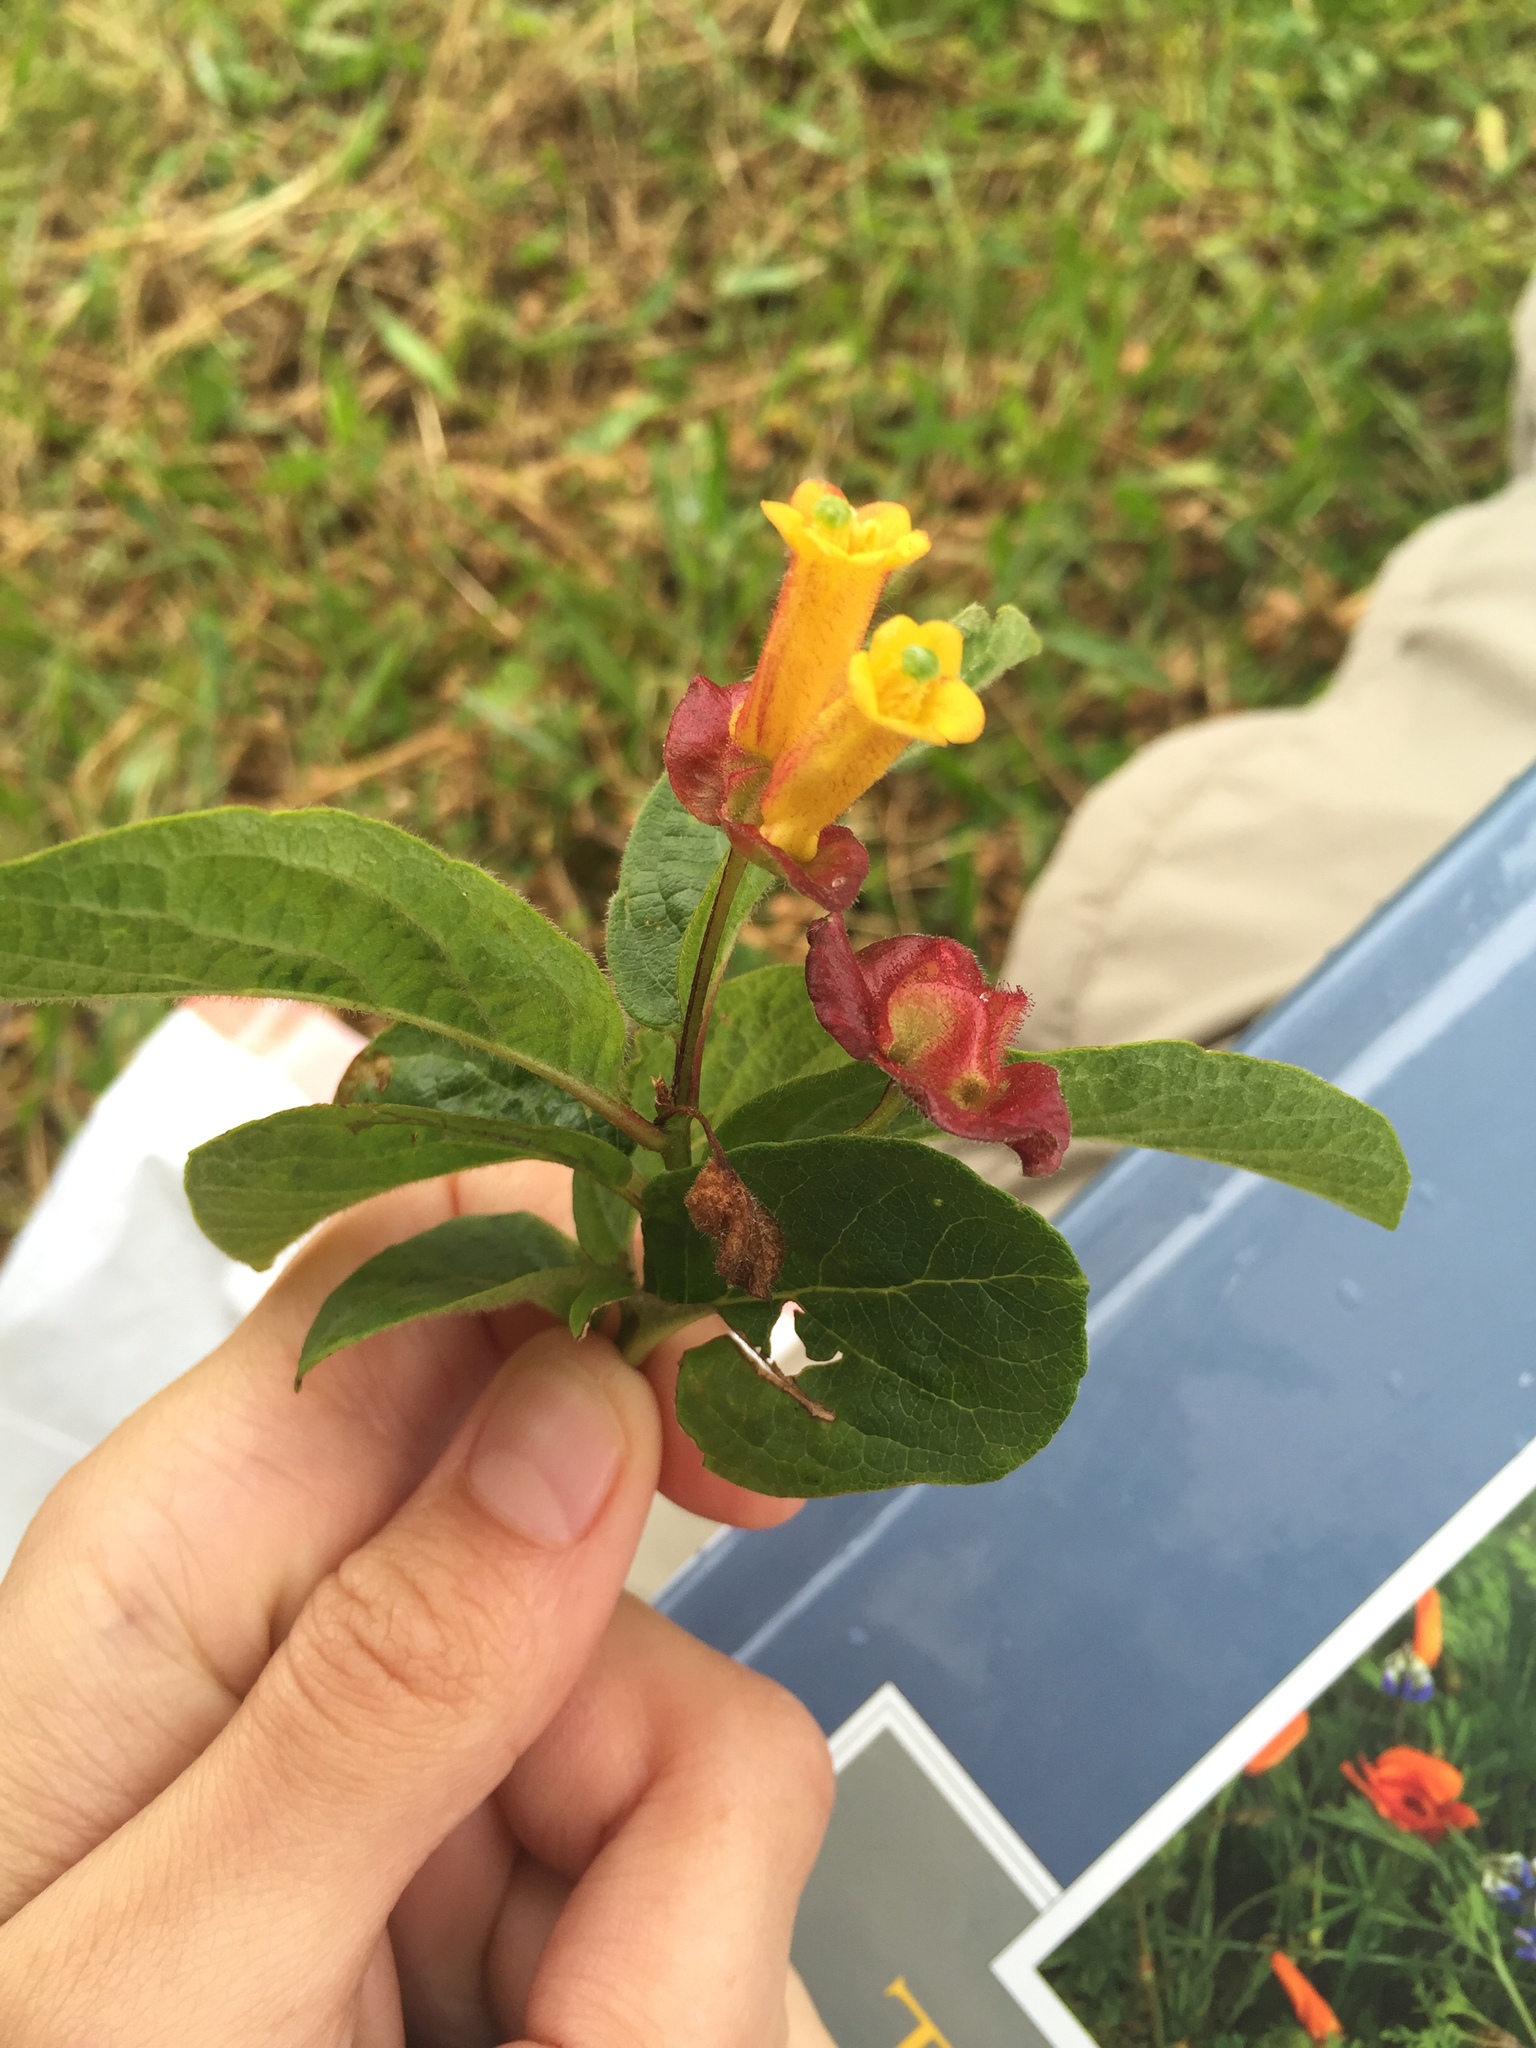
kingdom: Plantae
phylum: Tracheophyta
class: Magnoliopsida
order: Dipsacales
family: Caprifoliaceae
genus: Lonicera
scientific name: Lonicera involucrata
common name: Californian honeysuckle
